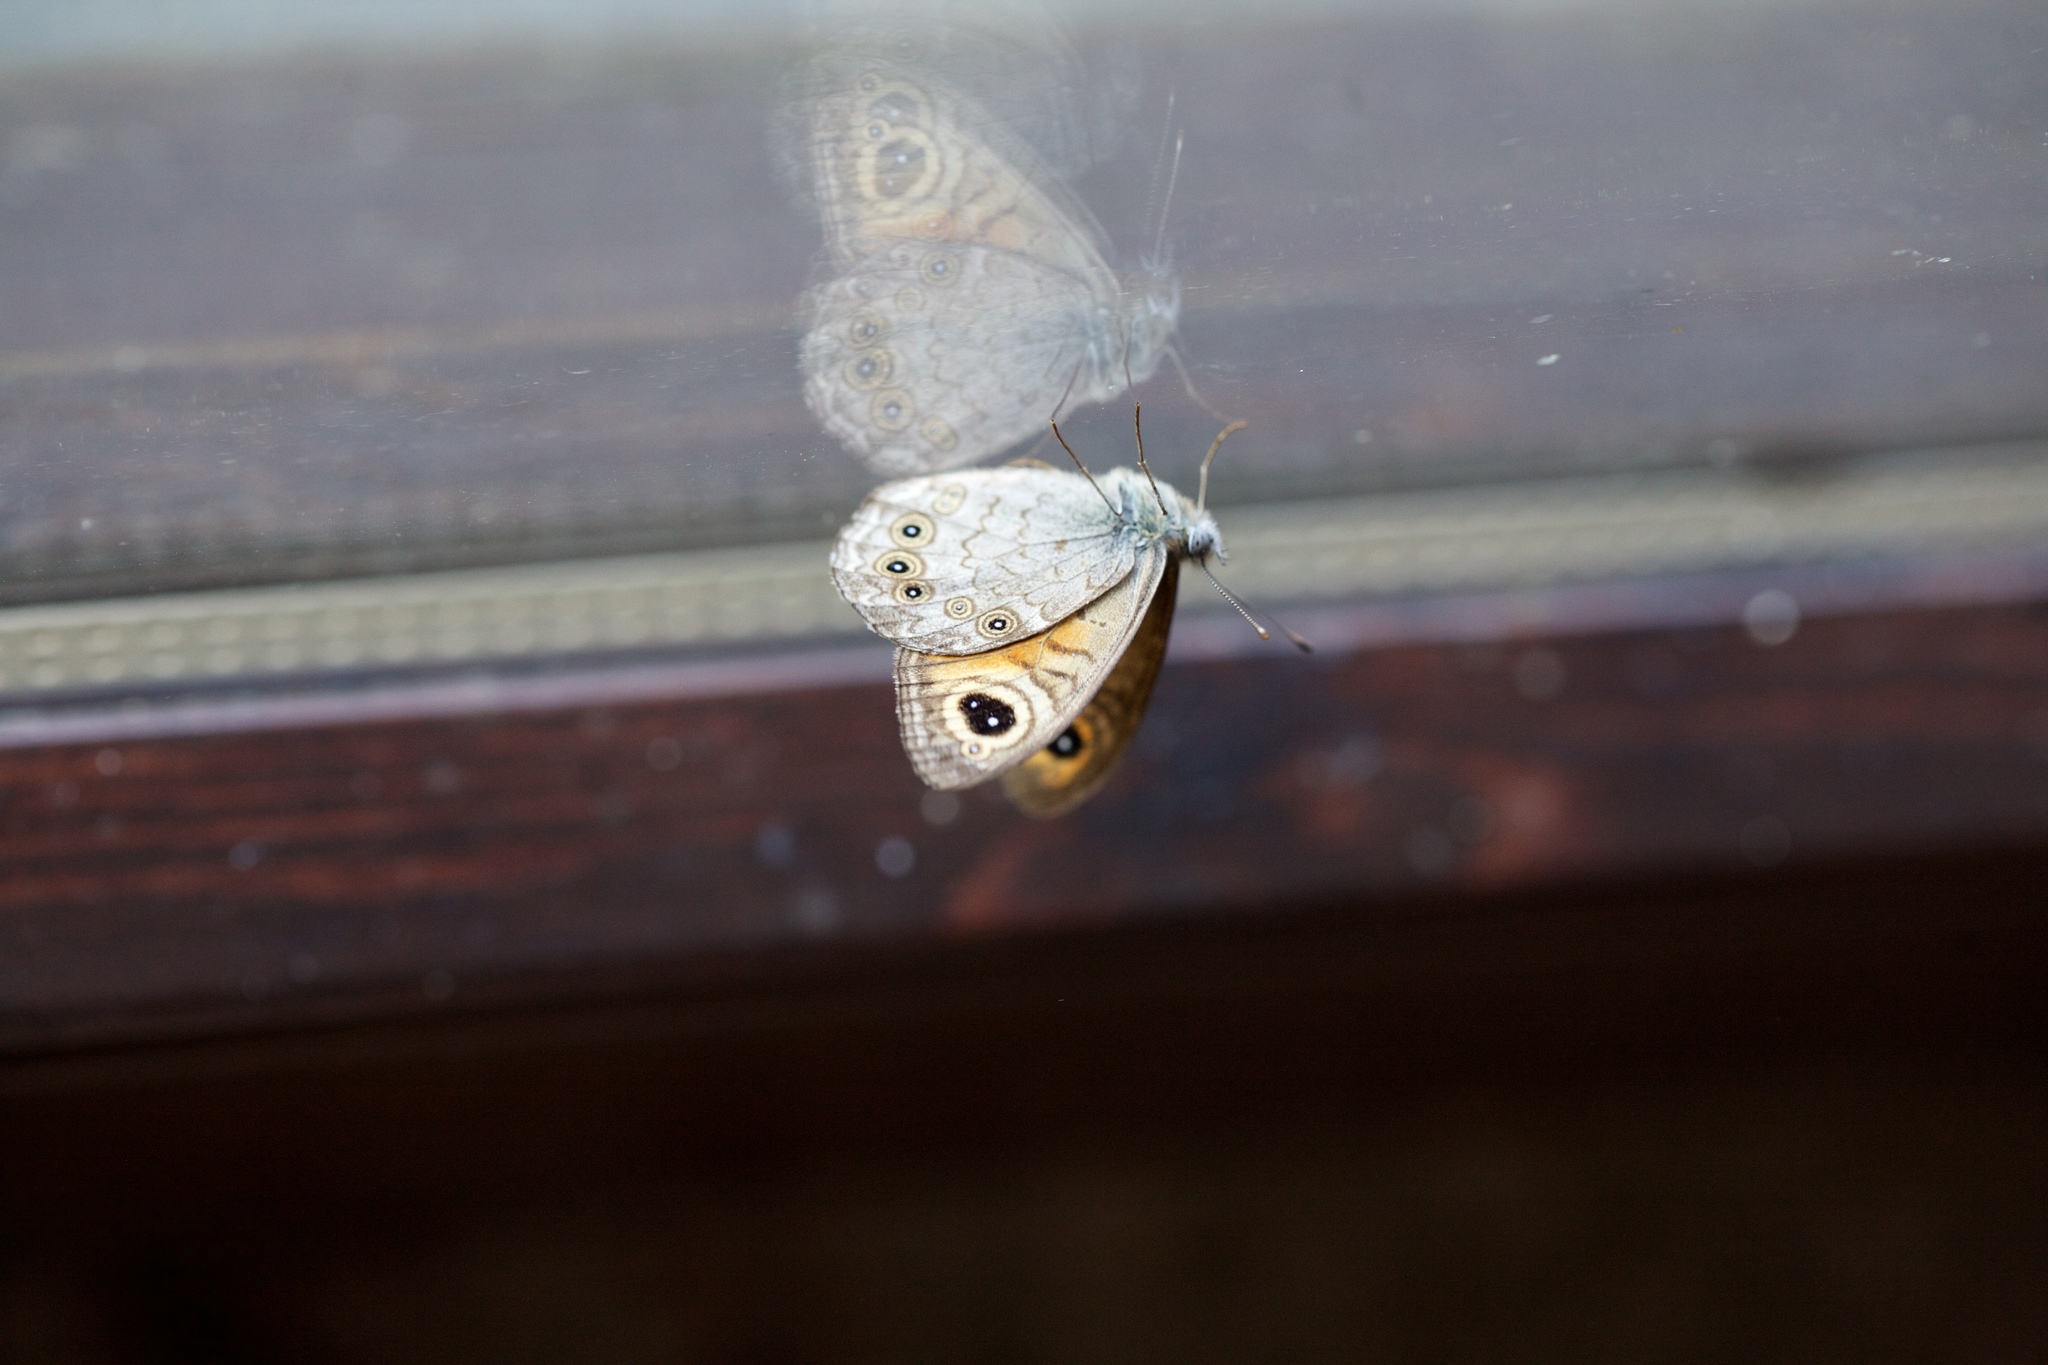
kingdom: Animalia
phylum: Arthropoda
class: Insecta
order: Lepidoptera
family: Nymphalidae
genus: Pararge
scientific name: Pararge Lasiommata maera
